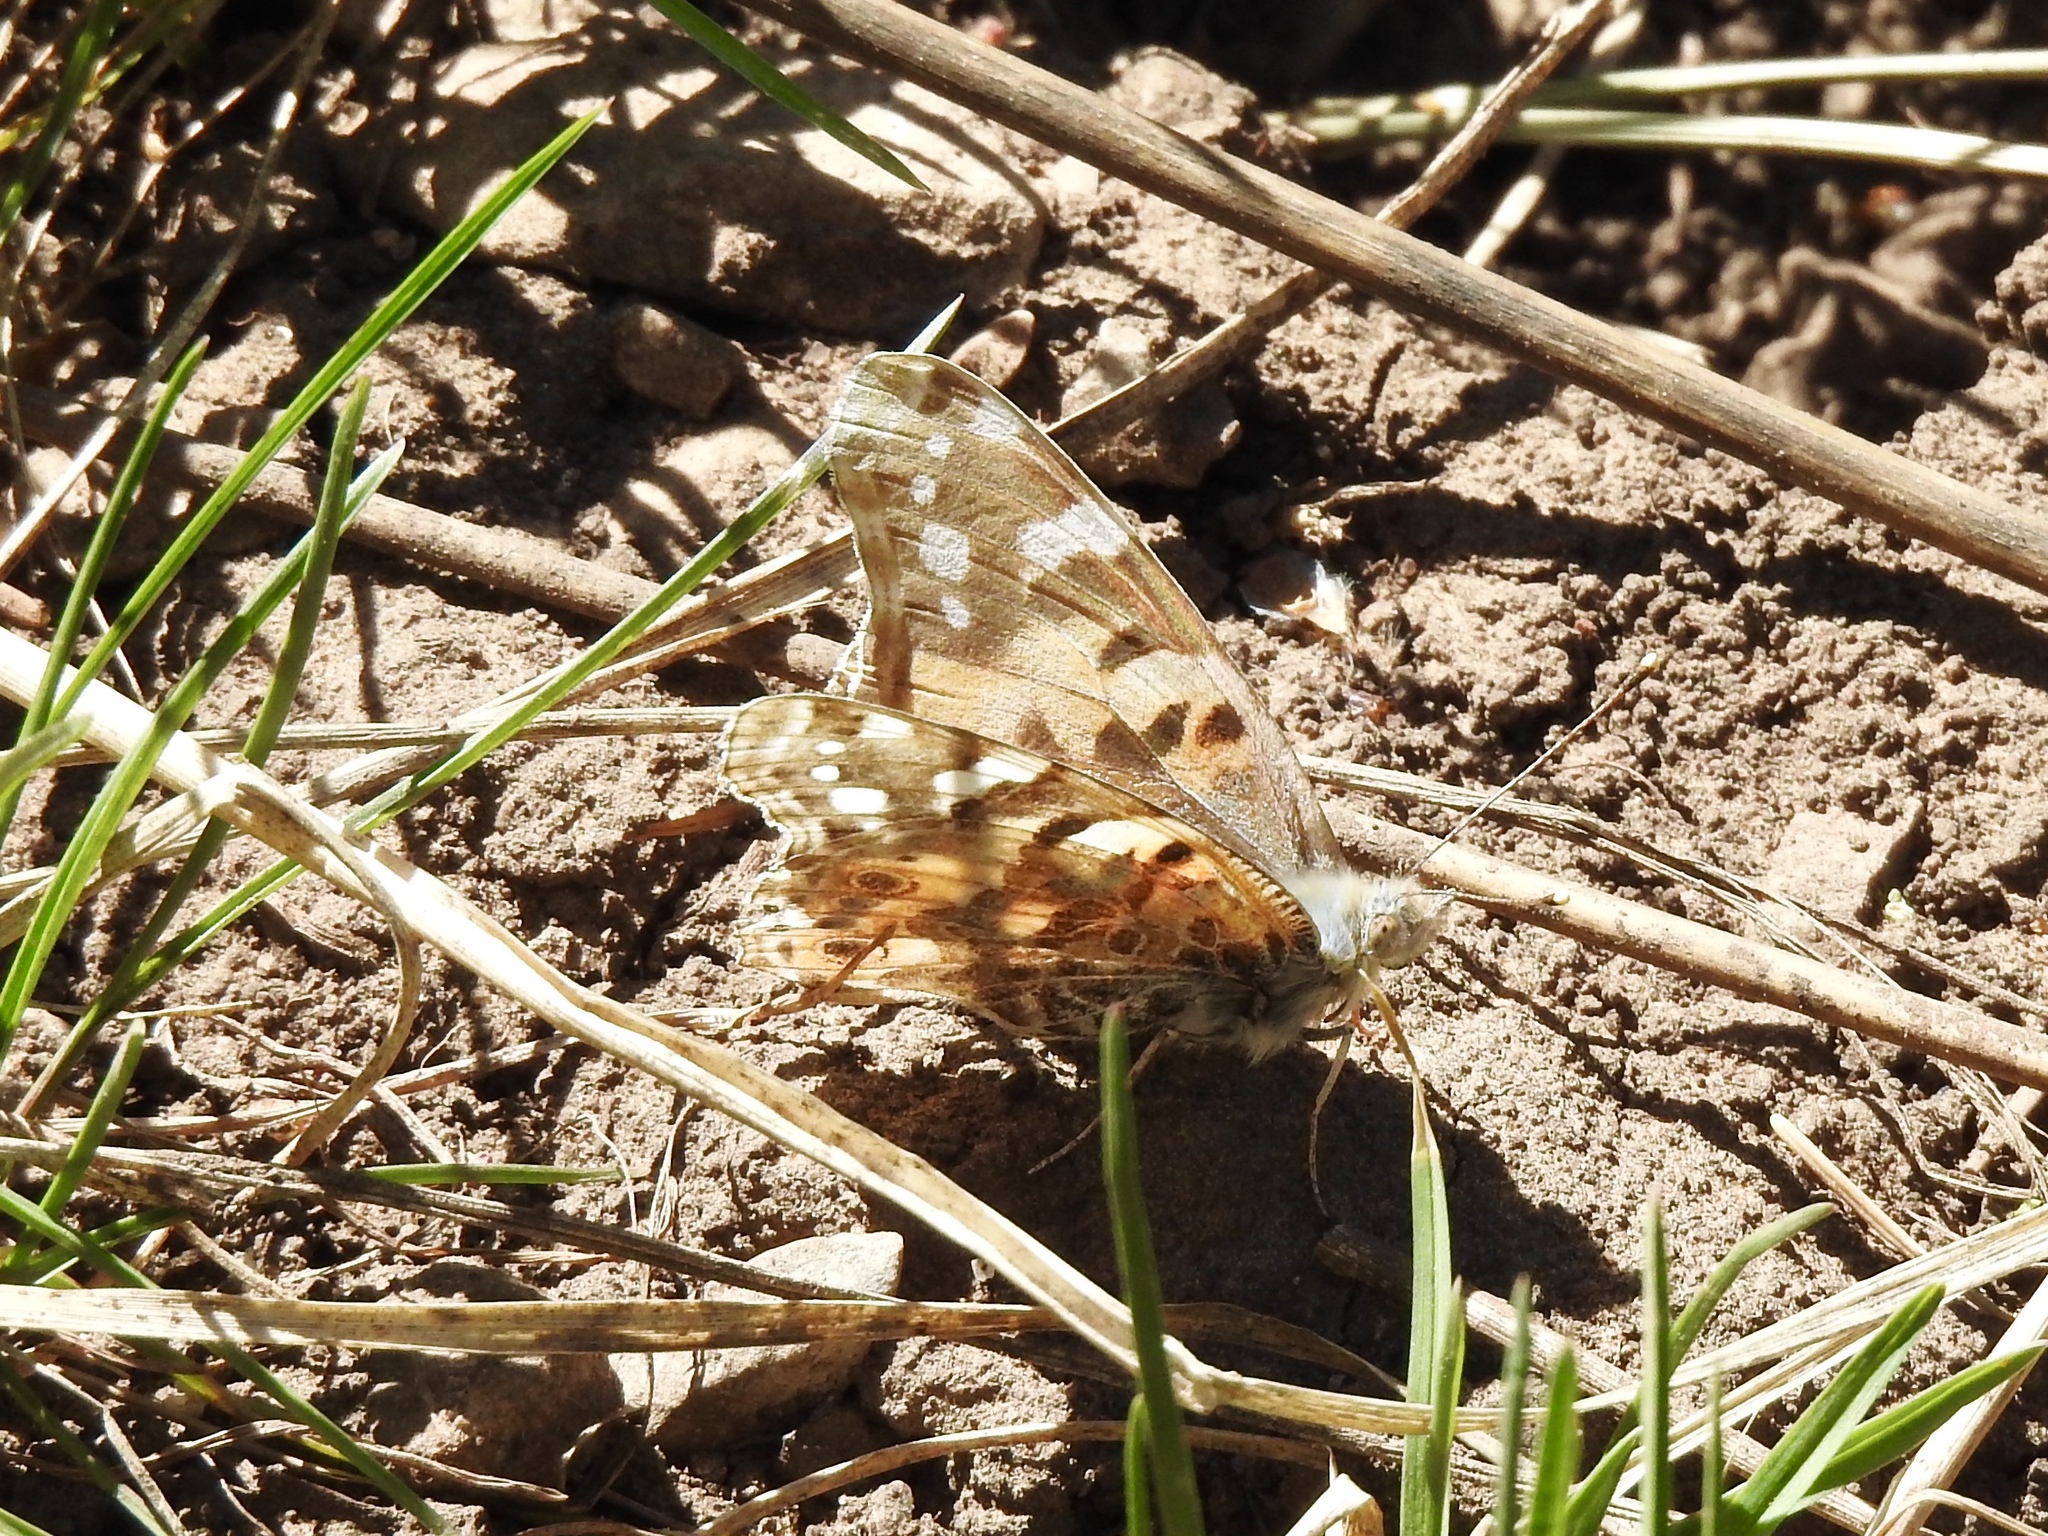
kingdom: Animalia
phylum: Arthropoda
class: Insecta
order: Lepidoptera
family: Nymphalidae
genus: Vanessa
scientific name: Vanessa cardui
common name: Painted lady
